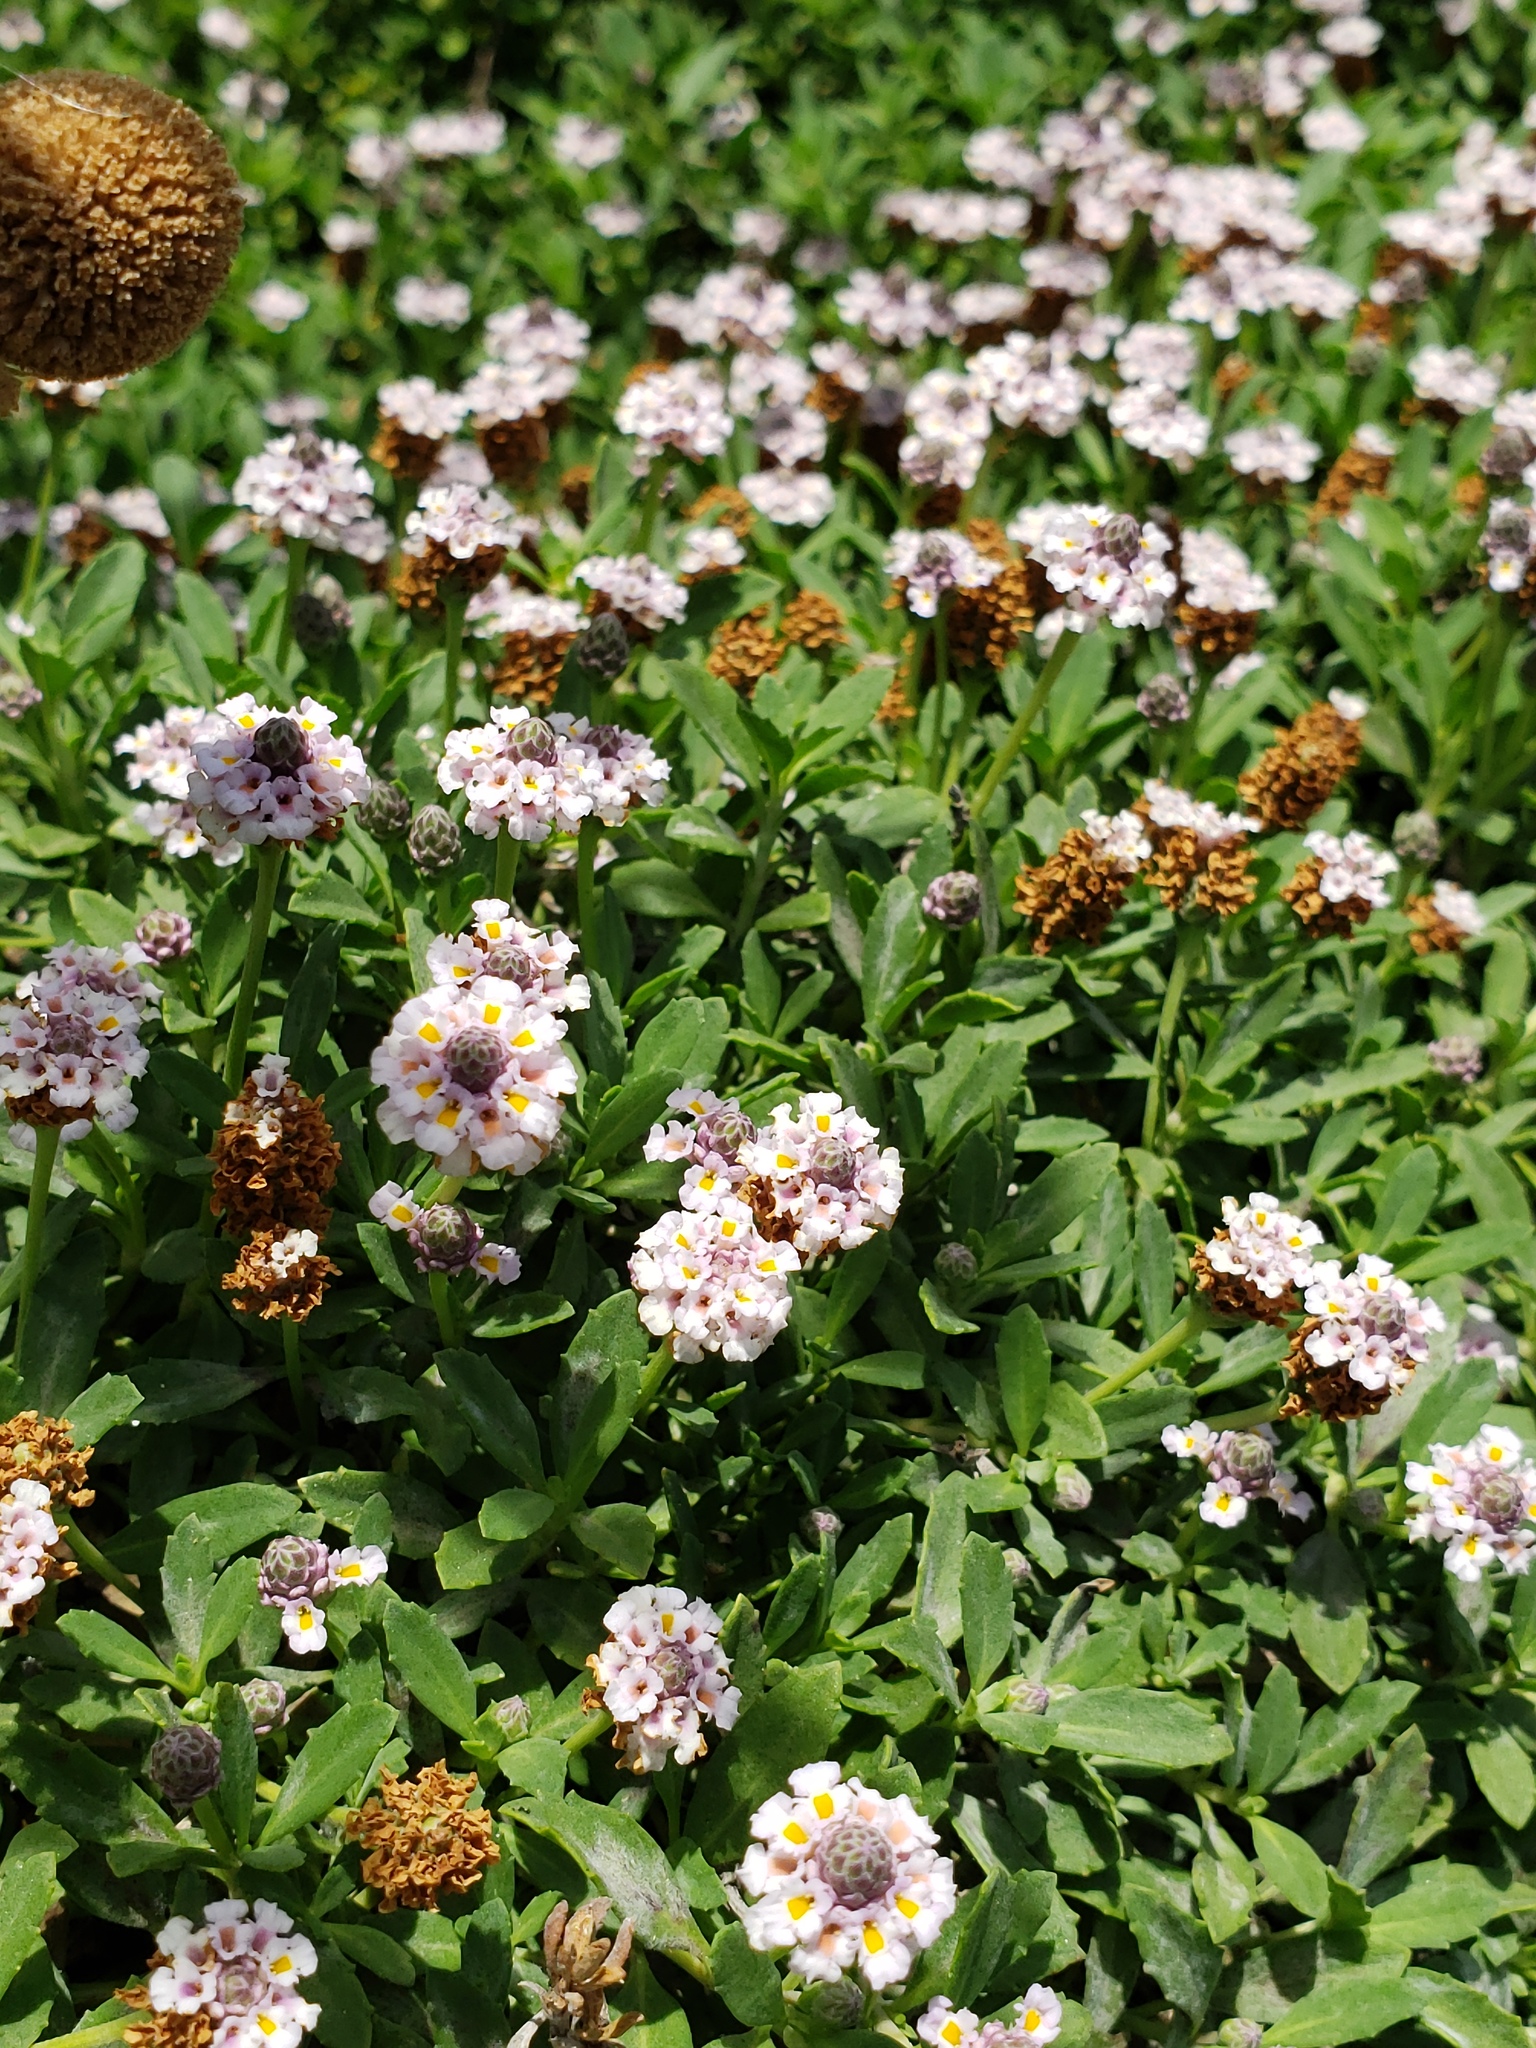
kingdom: Plantae
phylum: Tracheophyta
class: Magnoliopsida
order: Lamiales
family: Verbenaceae
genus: Phyla
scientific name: Phyla nodiflora
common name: Frogfruit
